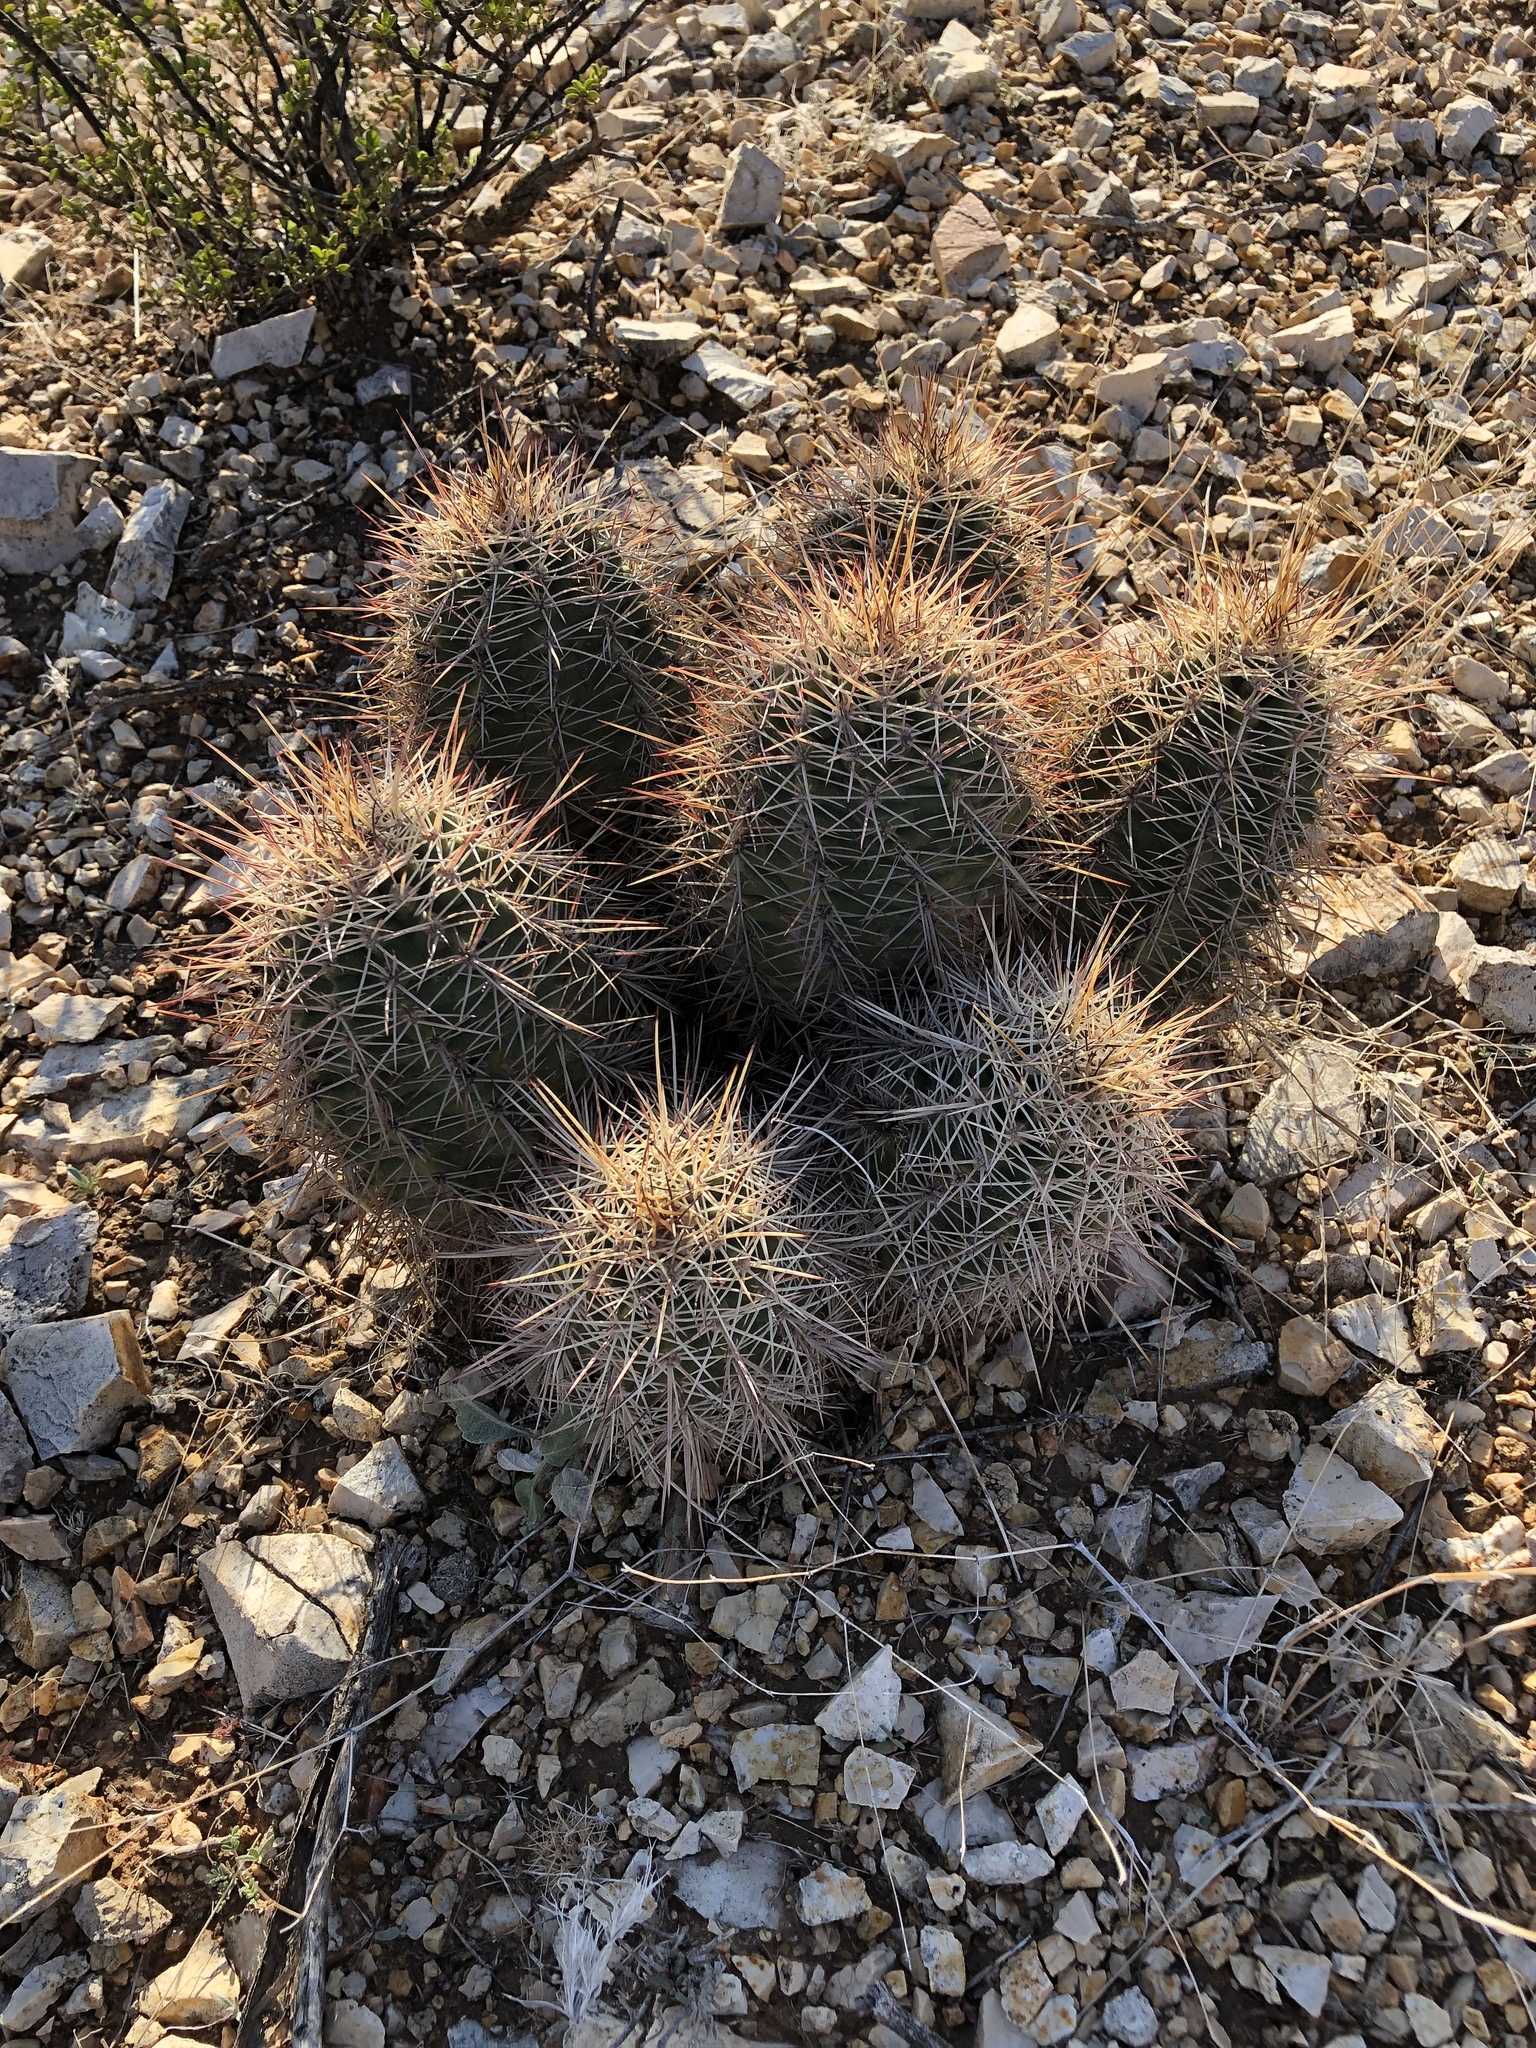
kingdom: Plantae
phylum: Tracheophyta
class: Magnoliopsida
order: Caryophyllales
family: Cactaceae
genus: Echinocereus
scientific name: Echinocereus coccineus
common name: Scarlet hedgehog cactus
